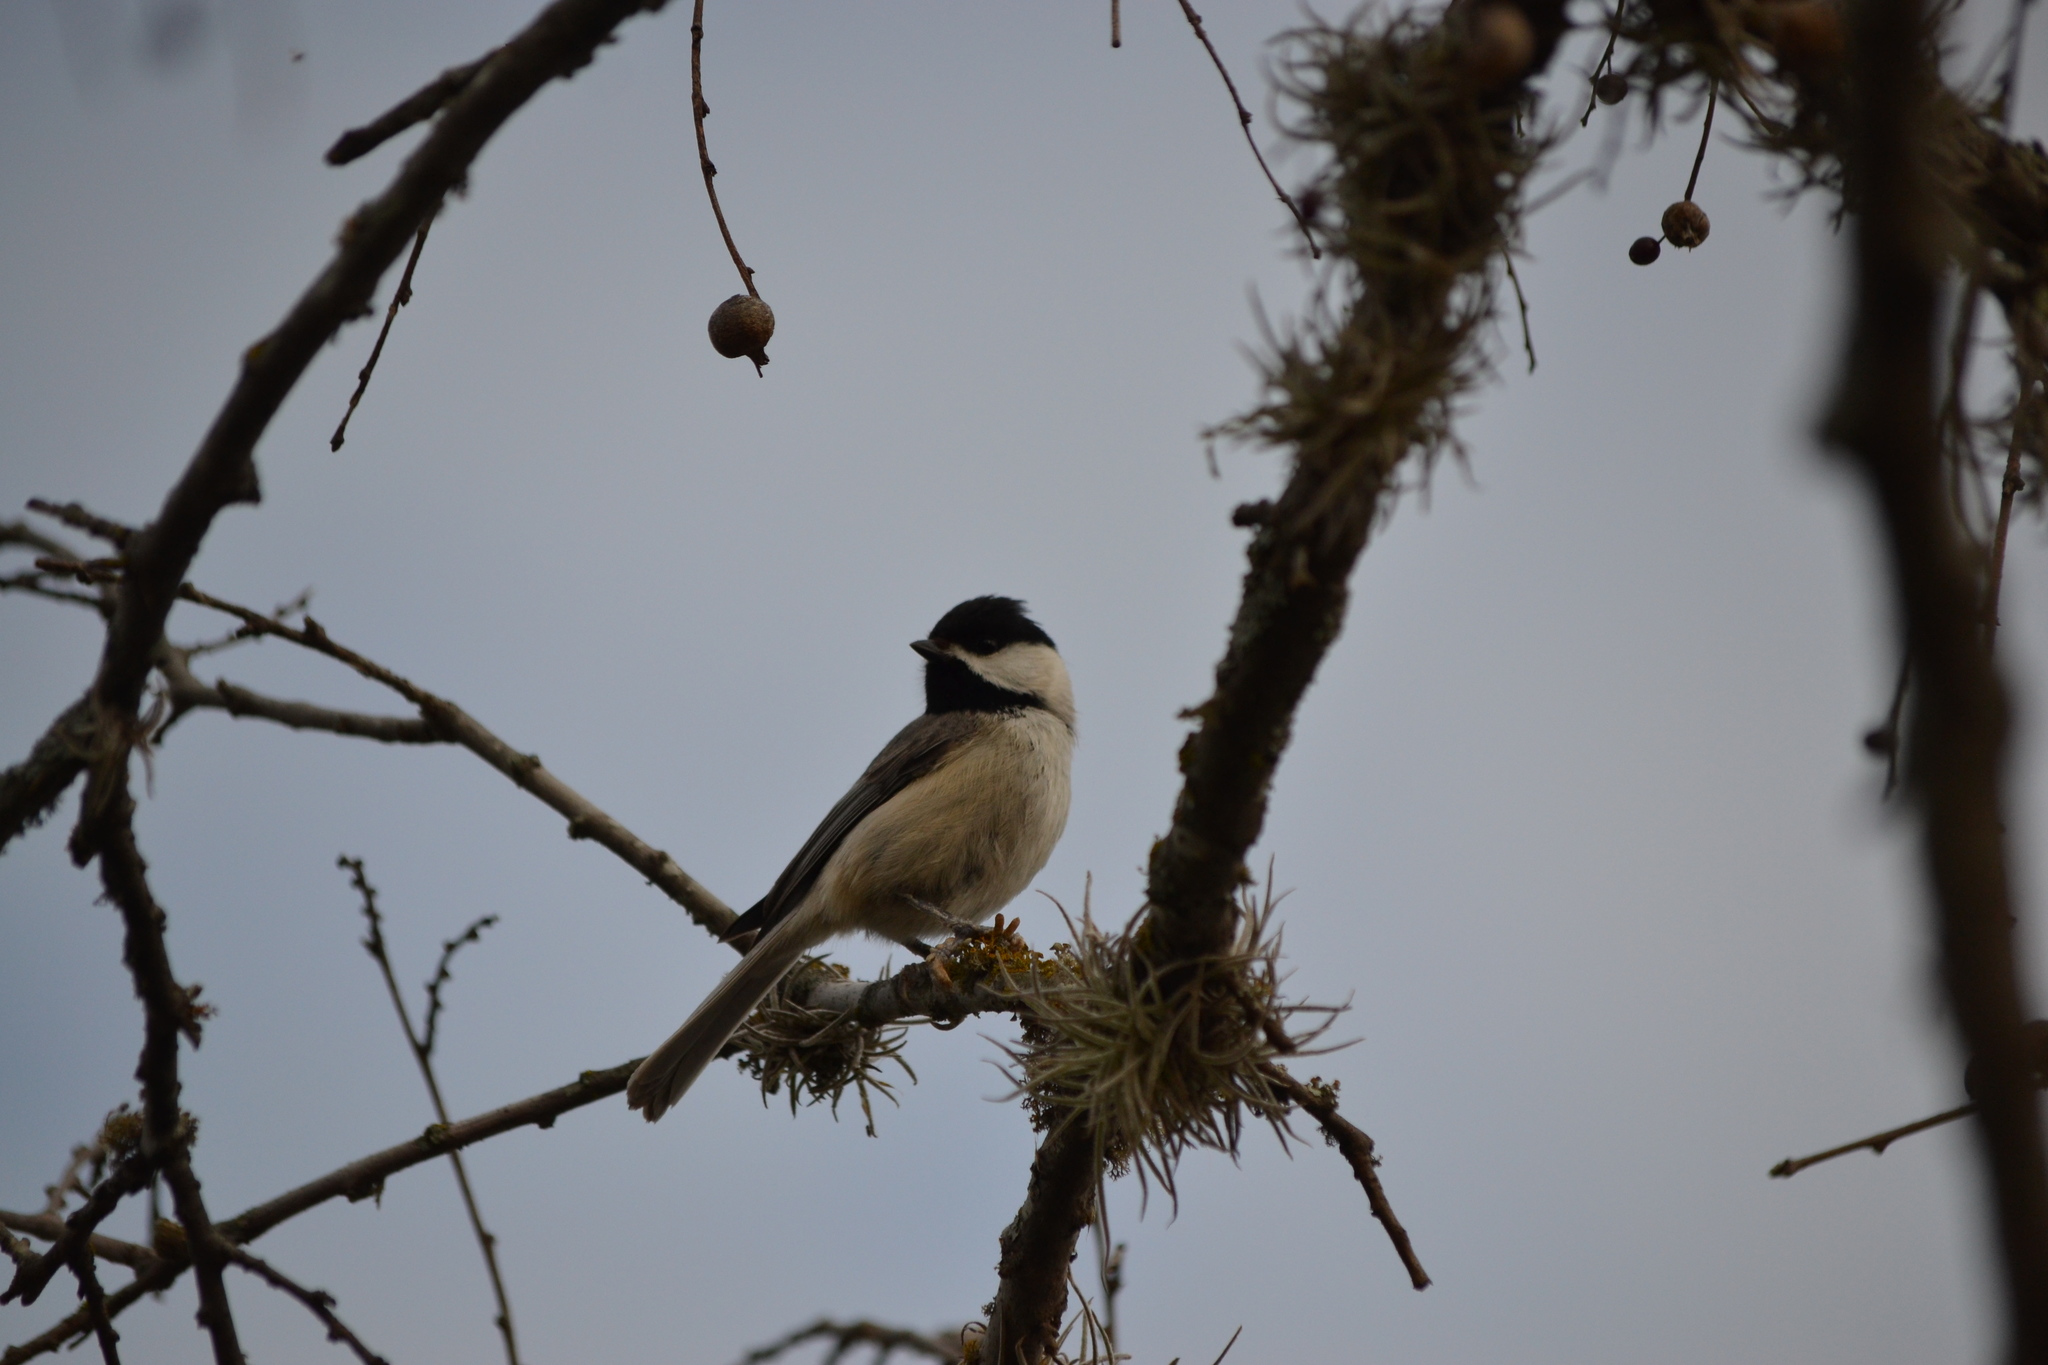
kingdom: Animalia
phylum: Chordata
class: Aves
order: Passeriformes
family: Paridae
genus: Poecile
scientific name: Poecile carolinensis
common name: Carolina chickadee
